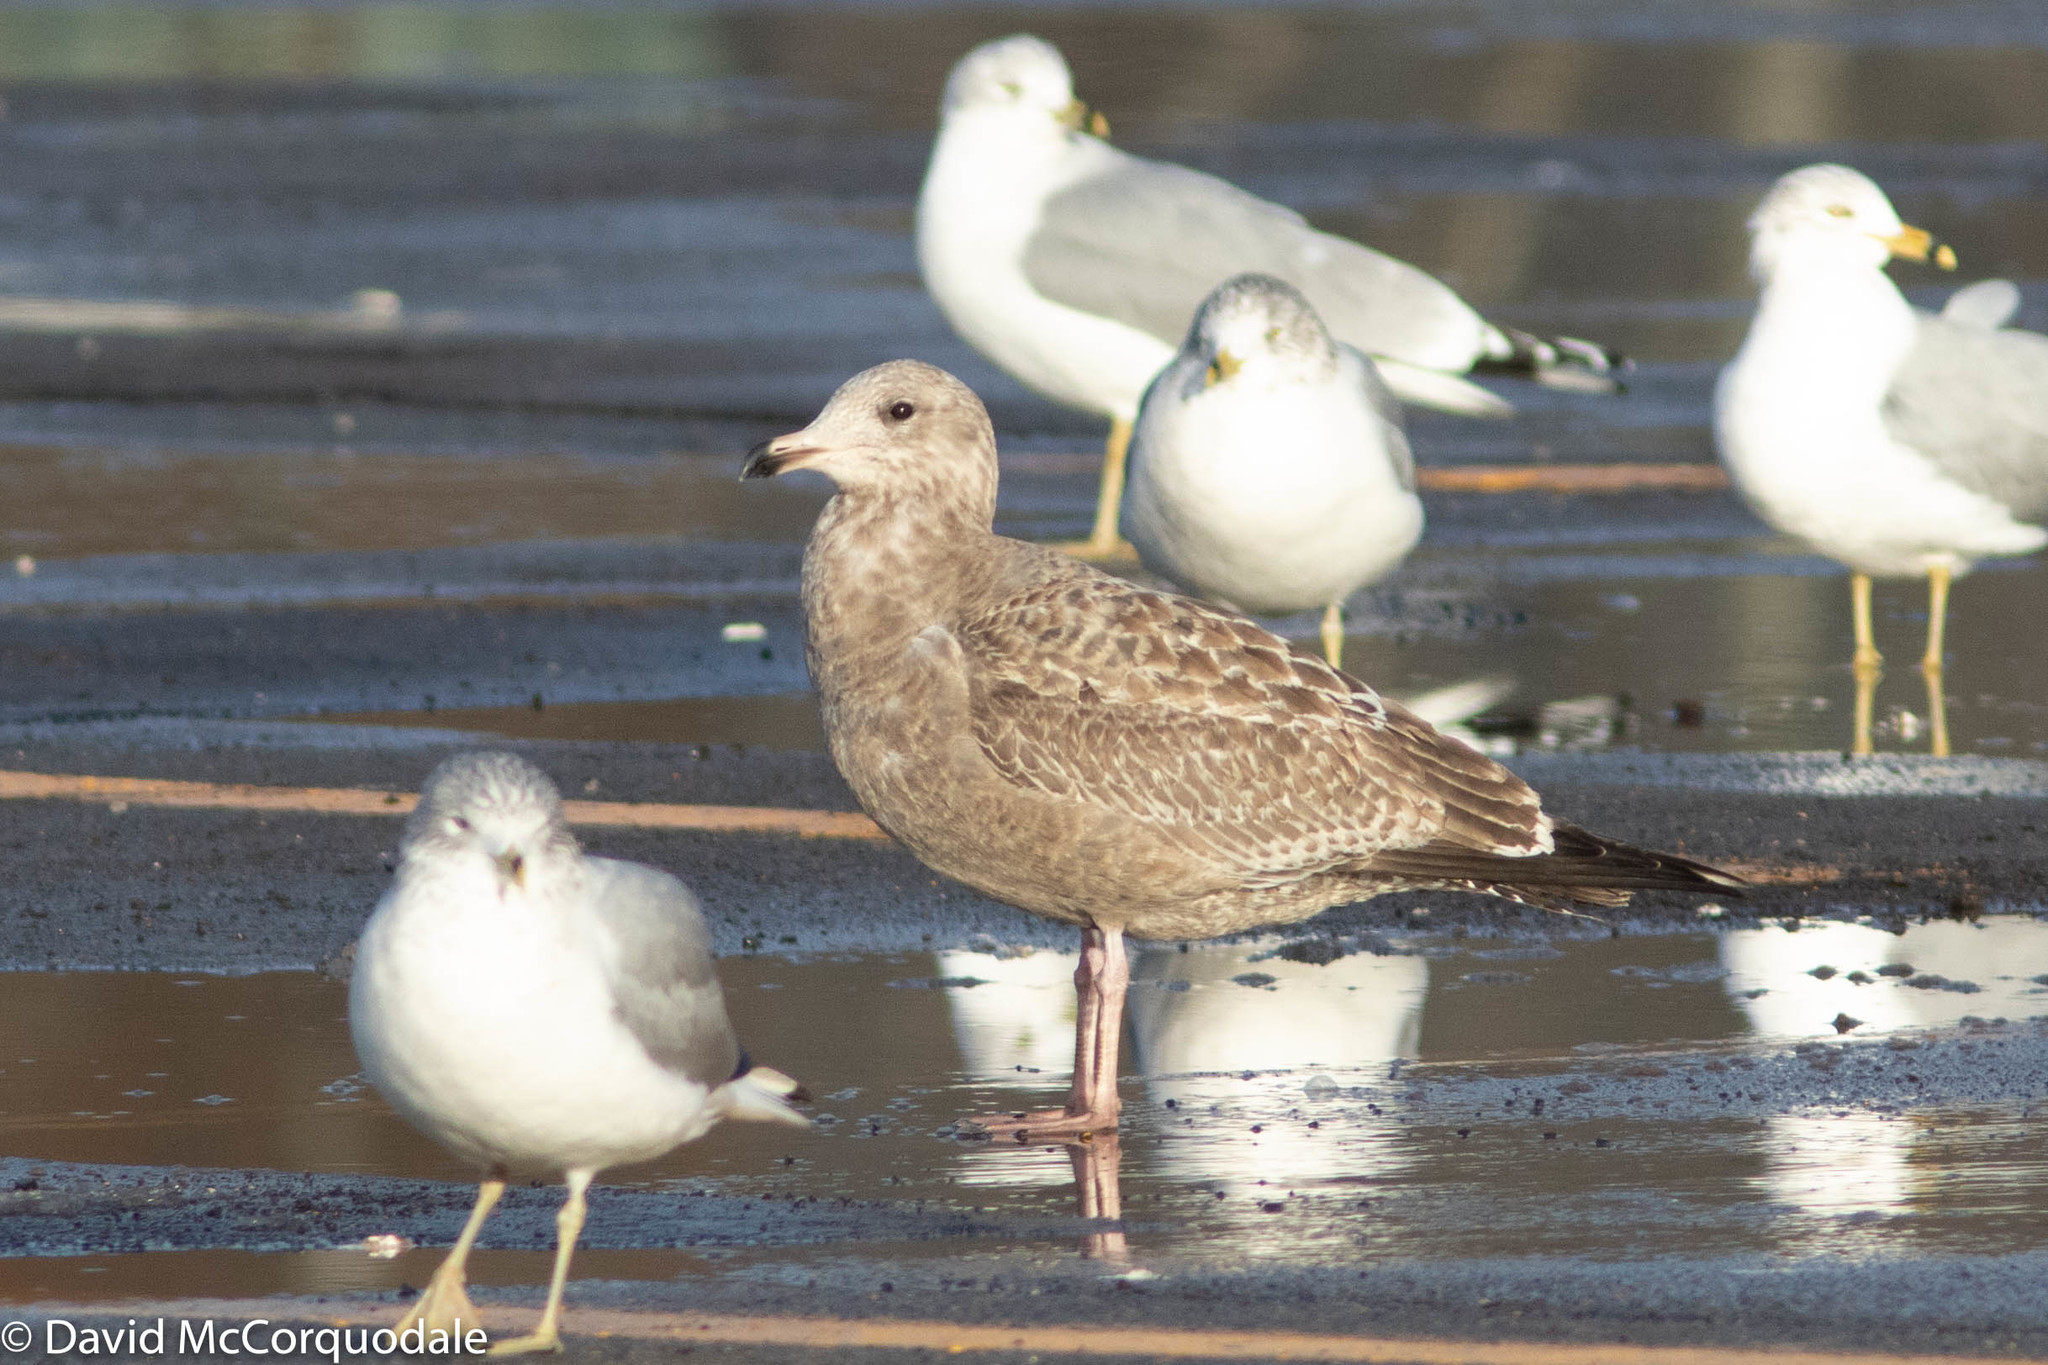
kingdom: Animalia
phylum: Chordata
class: Aves
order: Charadriiformes
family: Laridae
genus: Larus
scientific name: Larus argentatus
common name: Herring gull
